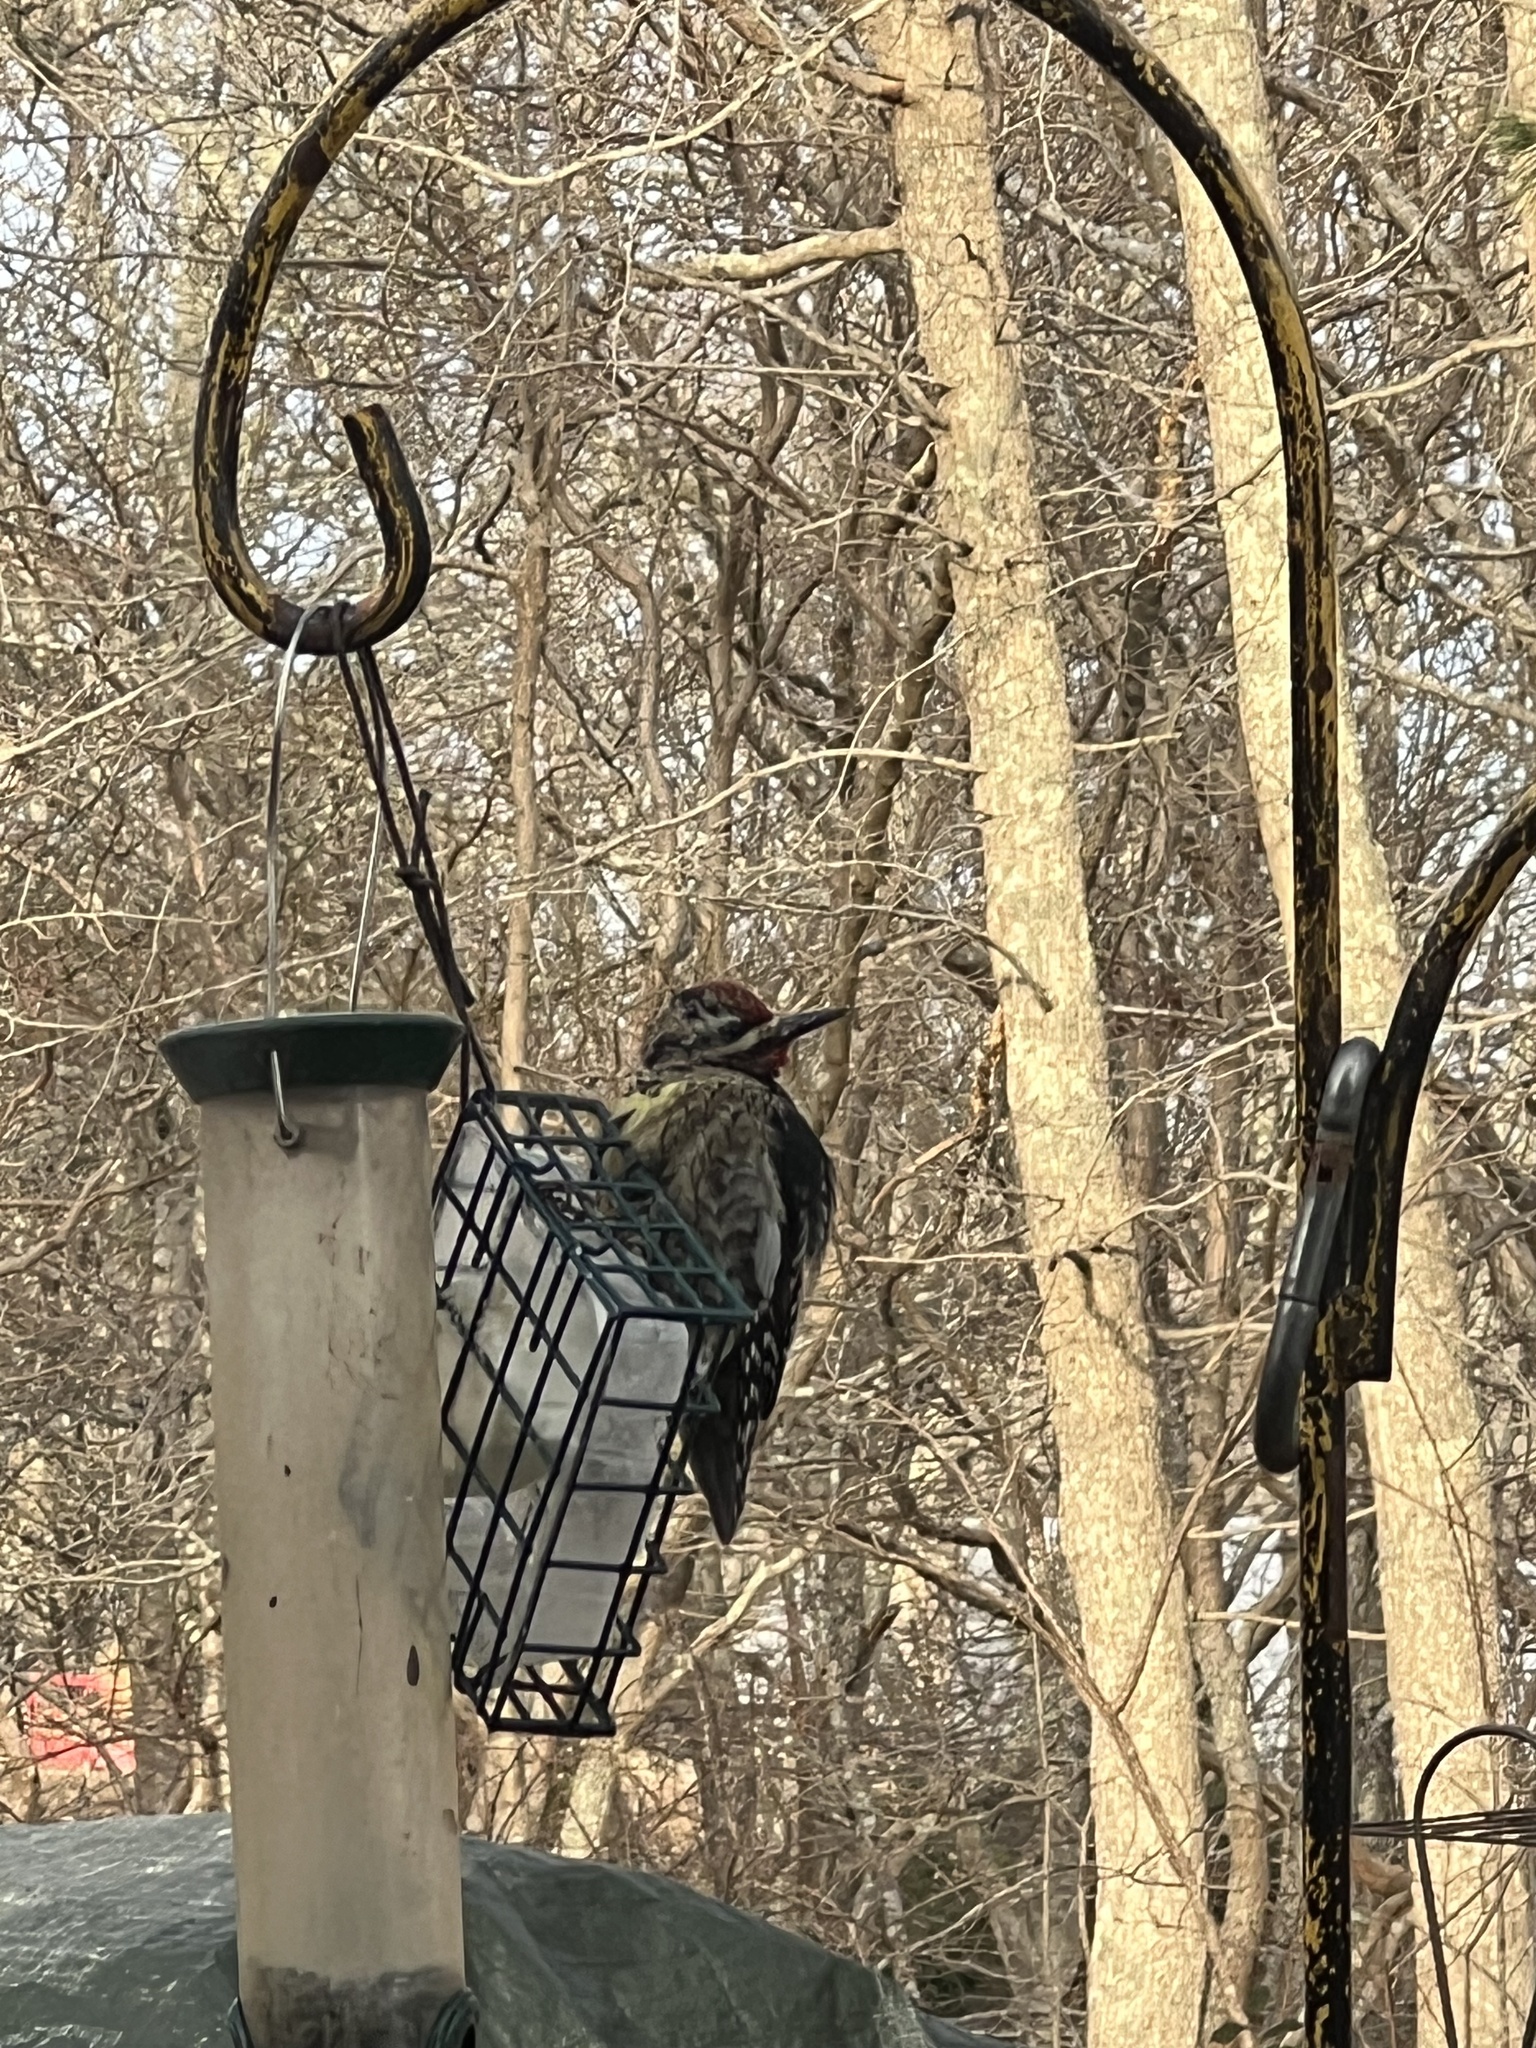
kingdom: Animalia
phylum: Chordata
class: Aves
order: Piciformes
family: Picidae
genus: Sphyrapicus
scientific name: Sphyrapicus varius
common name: Yellow-bellied sapsucker
